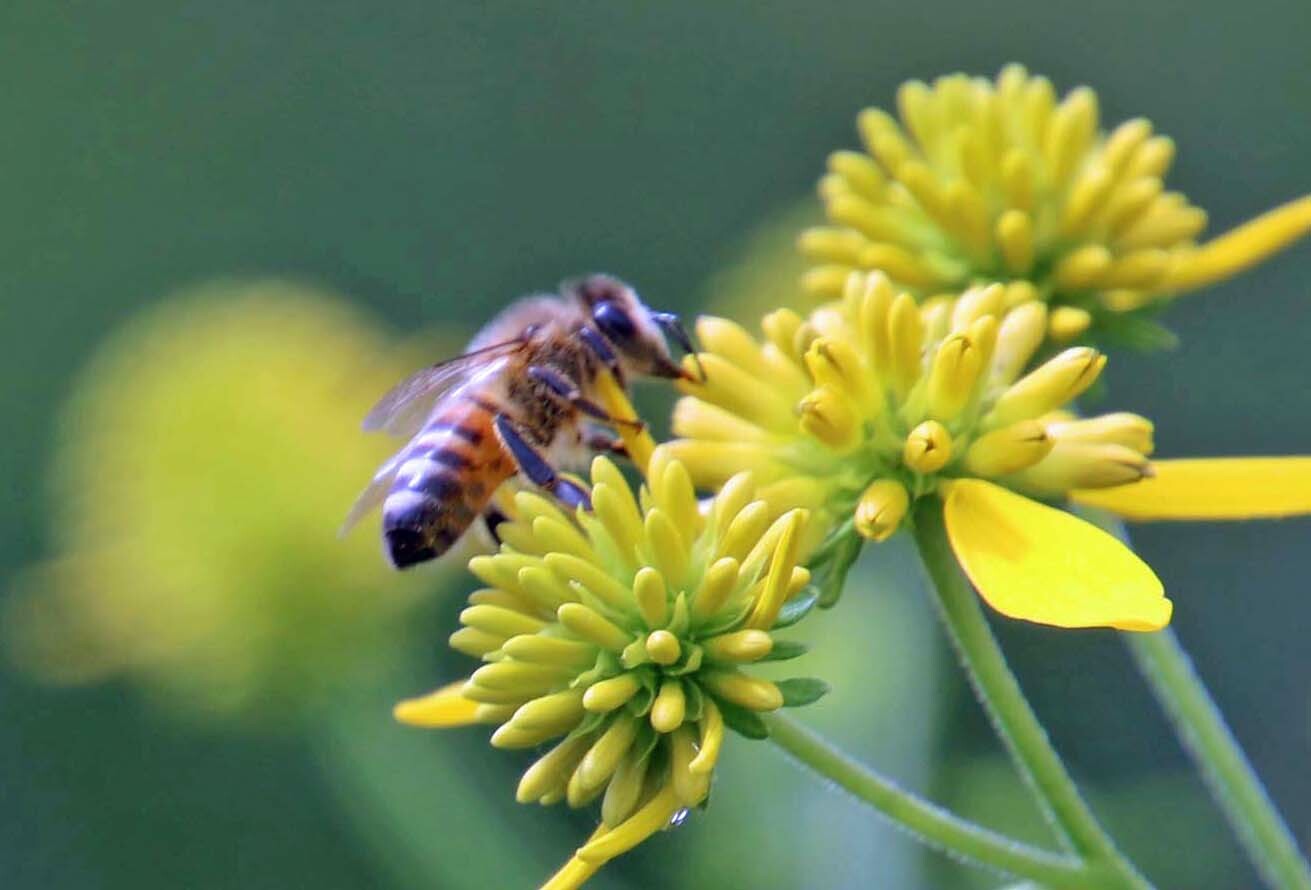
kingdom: Animalia
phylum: Arthropoda
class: Insecta
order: Hymenoptera
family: Apidae
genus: Apis
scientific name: Apis mellifera
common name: Honey bee
